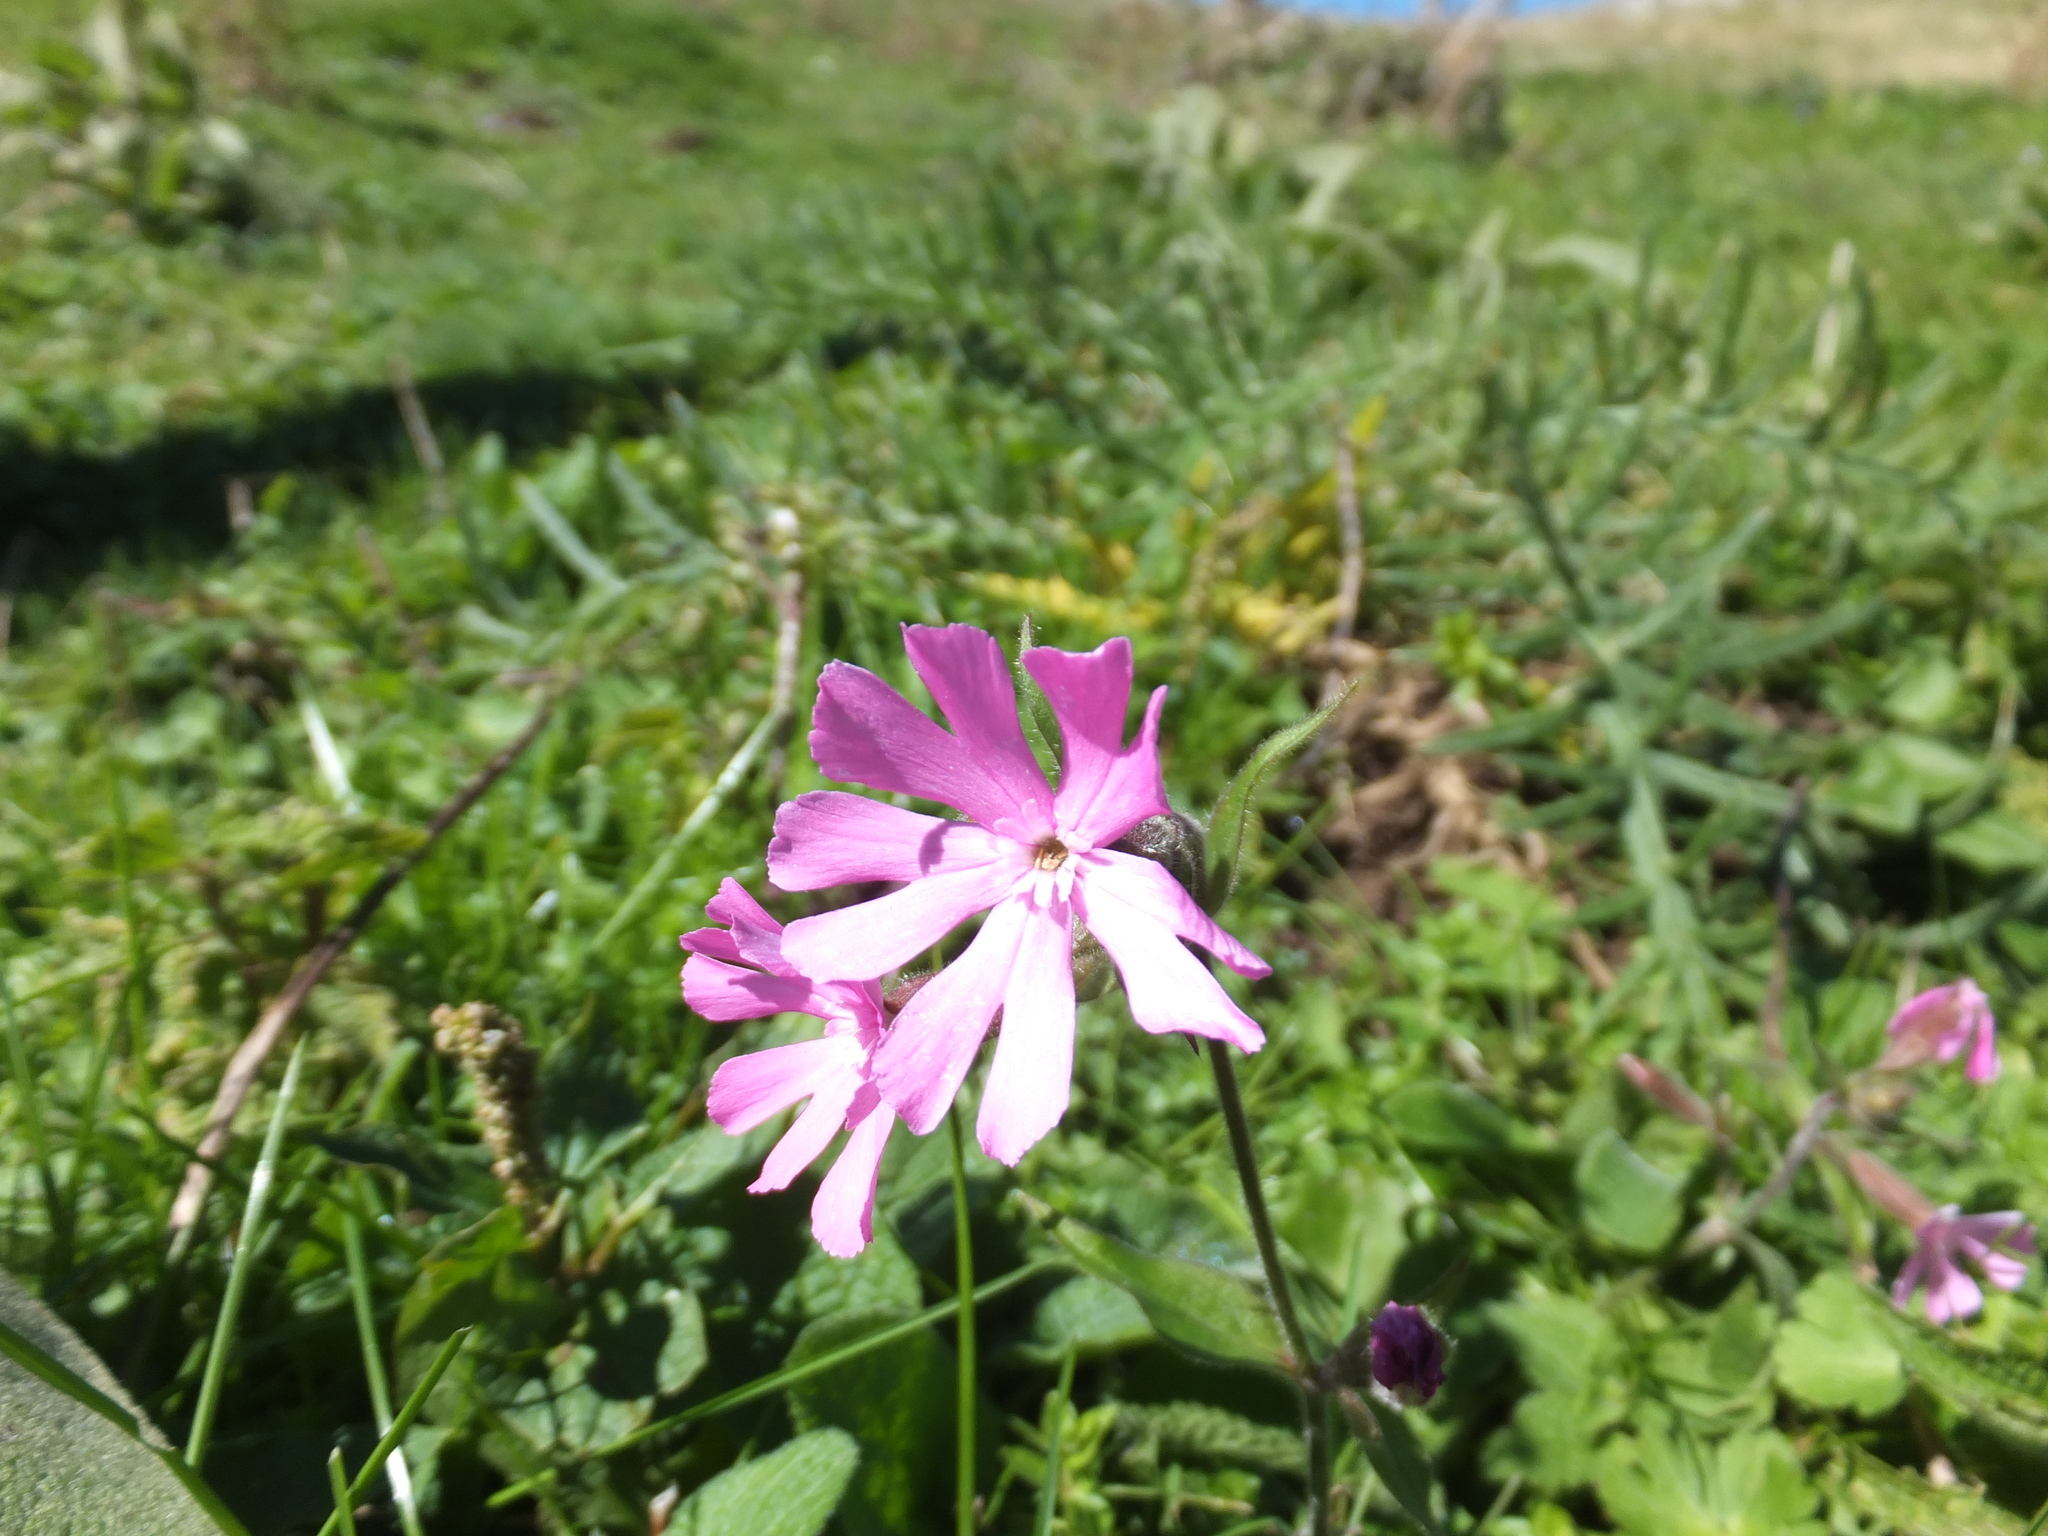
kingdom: Plantae
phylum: Tracheophyta
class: Magnoliopsida
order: Caryophyllales
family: Caryophyllaceae
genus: Silene
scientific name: Silene dioica
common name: Red campion
